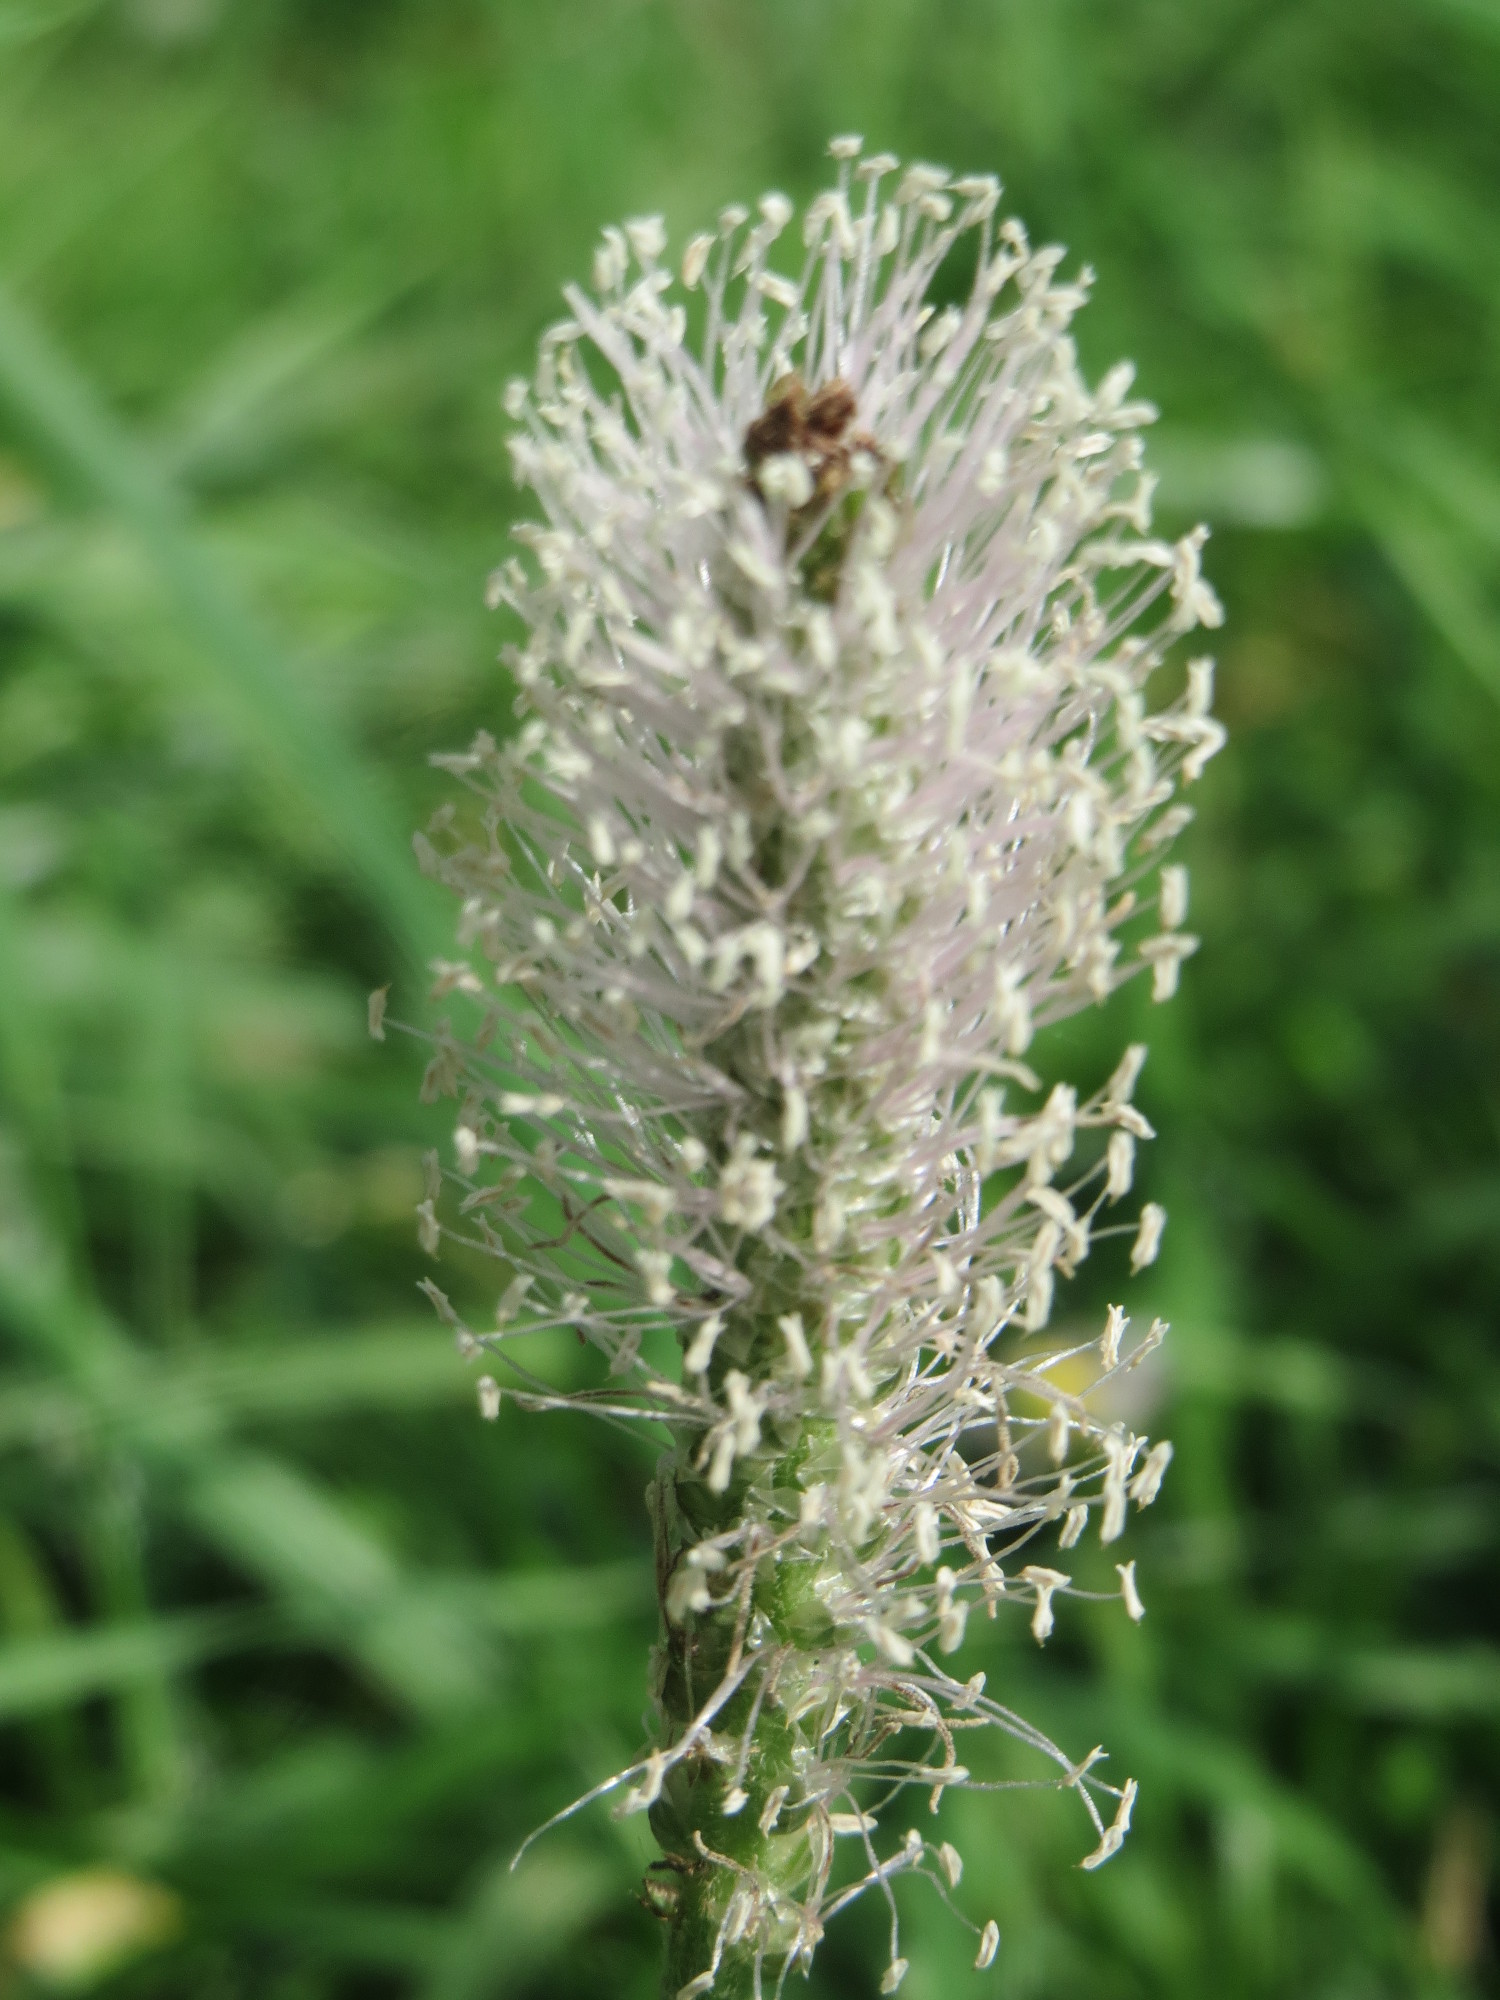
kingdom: Plantae
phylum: Tracheophyta
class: Magnoliopsida
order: Lamiales
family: Plantaginaceae
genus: Plantago
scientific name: Plantago media
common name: Hoary plantain
